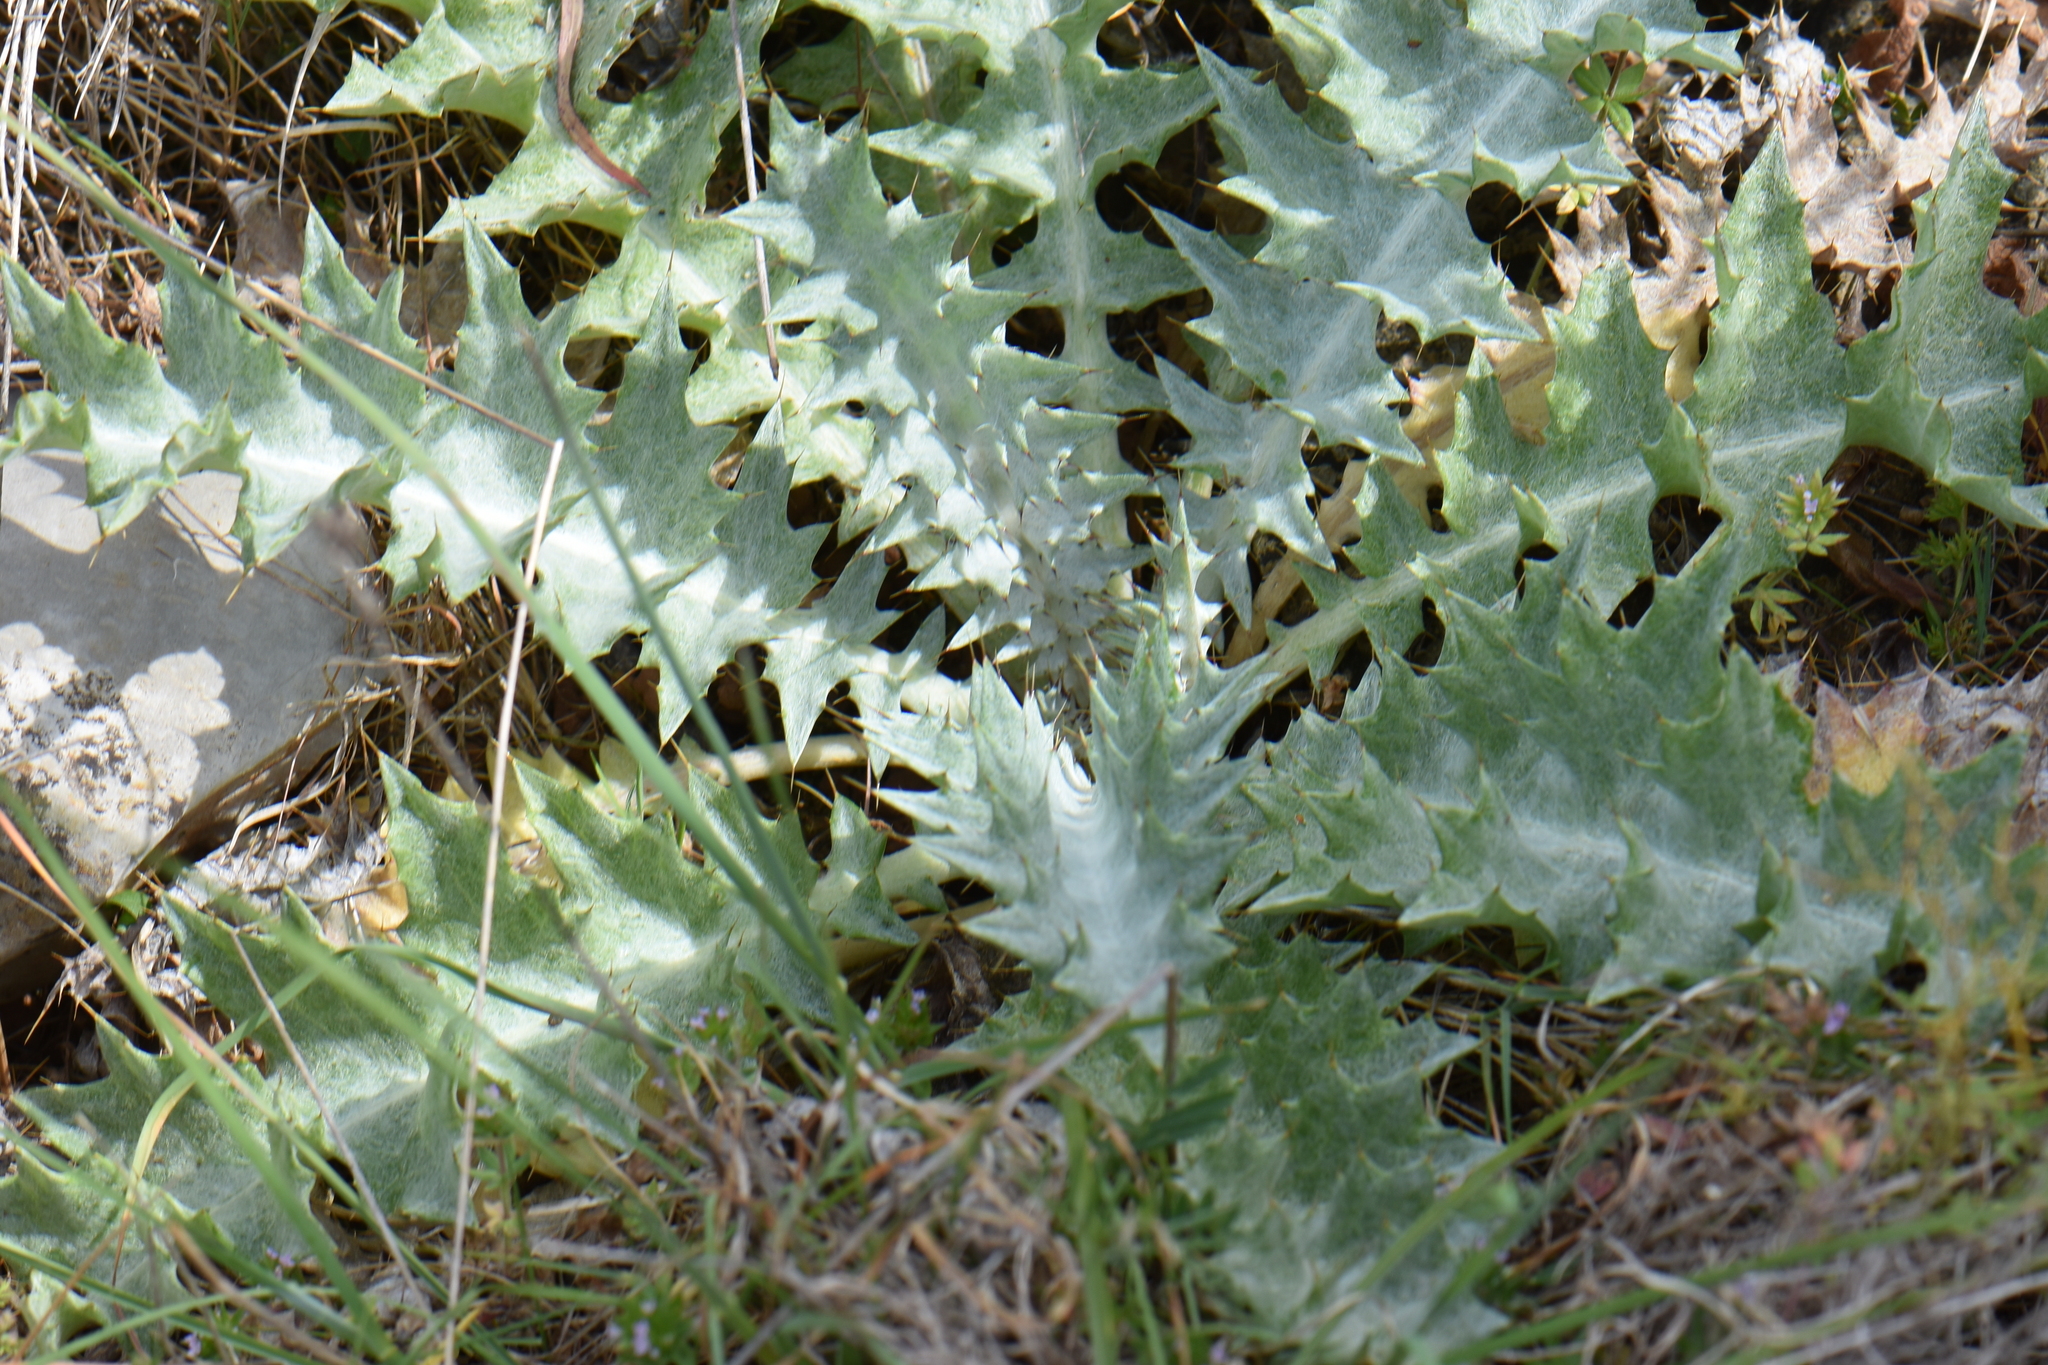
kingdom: Plantae
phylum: Tracheophyta
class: Magnoliopsida
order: Asterales
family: Asteraceae
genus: Onopordum
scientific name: Onopordum illyricum
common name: Illyrian thistle
